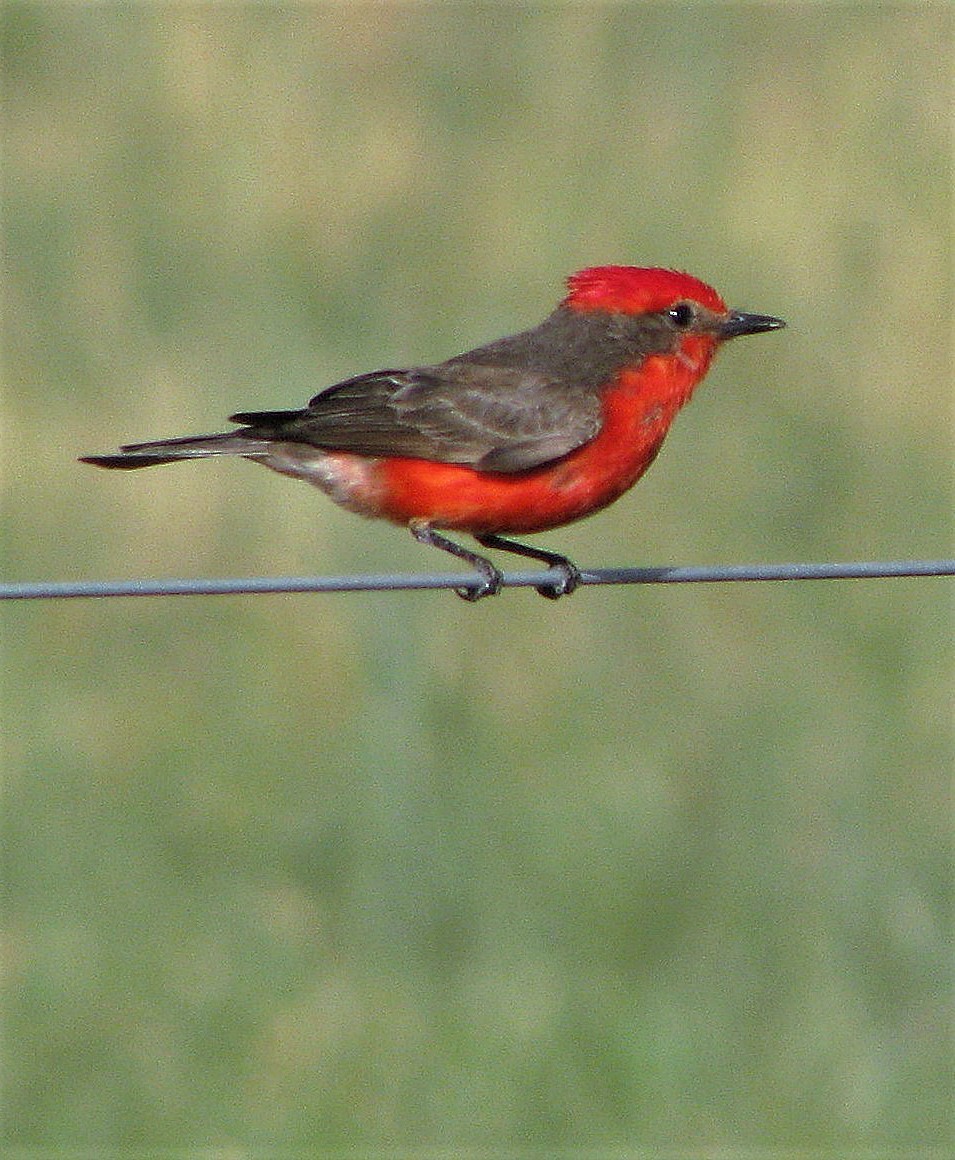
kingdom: Animalia
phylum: Chordata
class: Aves
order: Passeriformes
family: Tyrannidae
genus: Pyrocephalus
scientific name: Pyrocephalus rubinus
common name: Vermilion flycatcher
